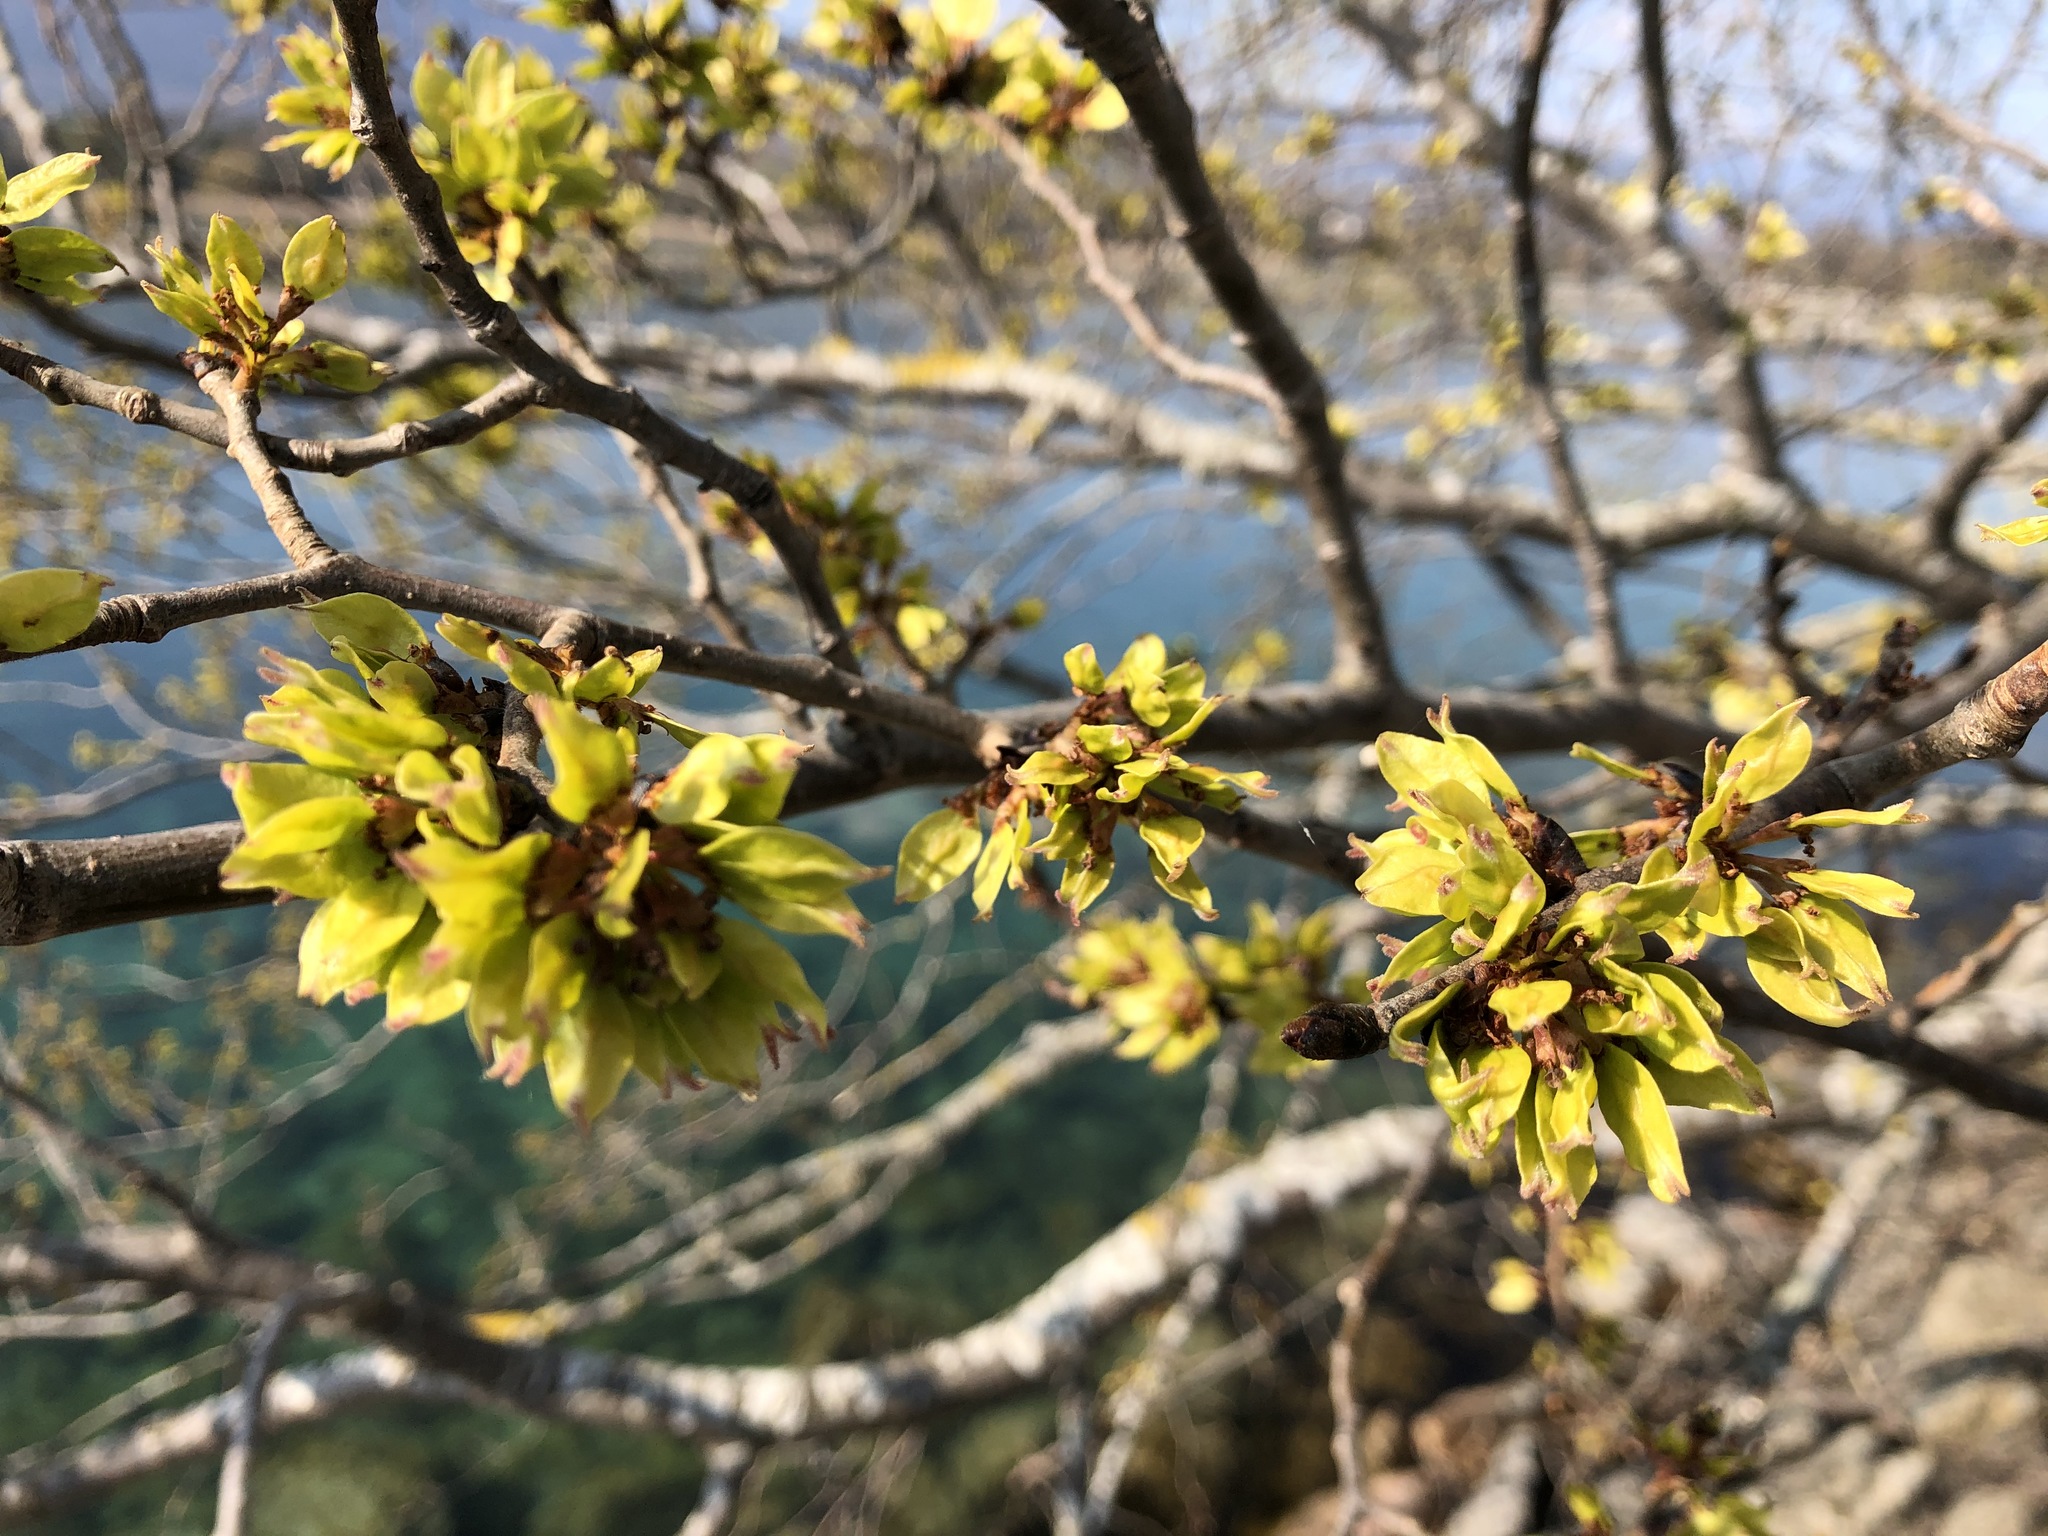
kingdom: Plantae
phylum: Tracheophyta
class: Magnoliopsida
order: Rosales
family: Ulmaceae
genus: Ulmus
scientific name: Ulmus glabra
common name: Wych elm
